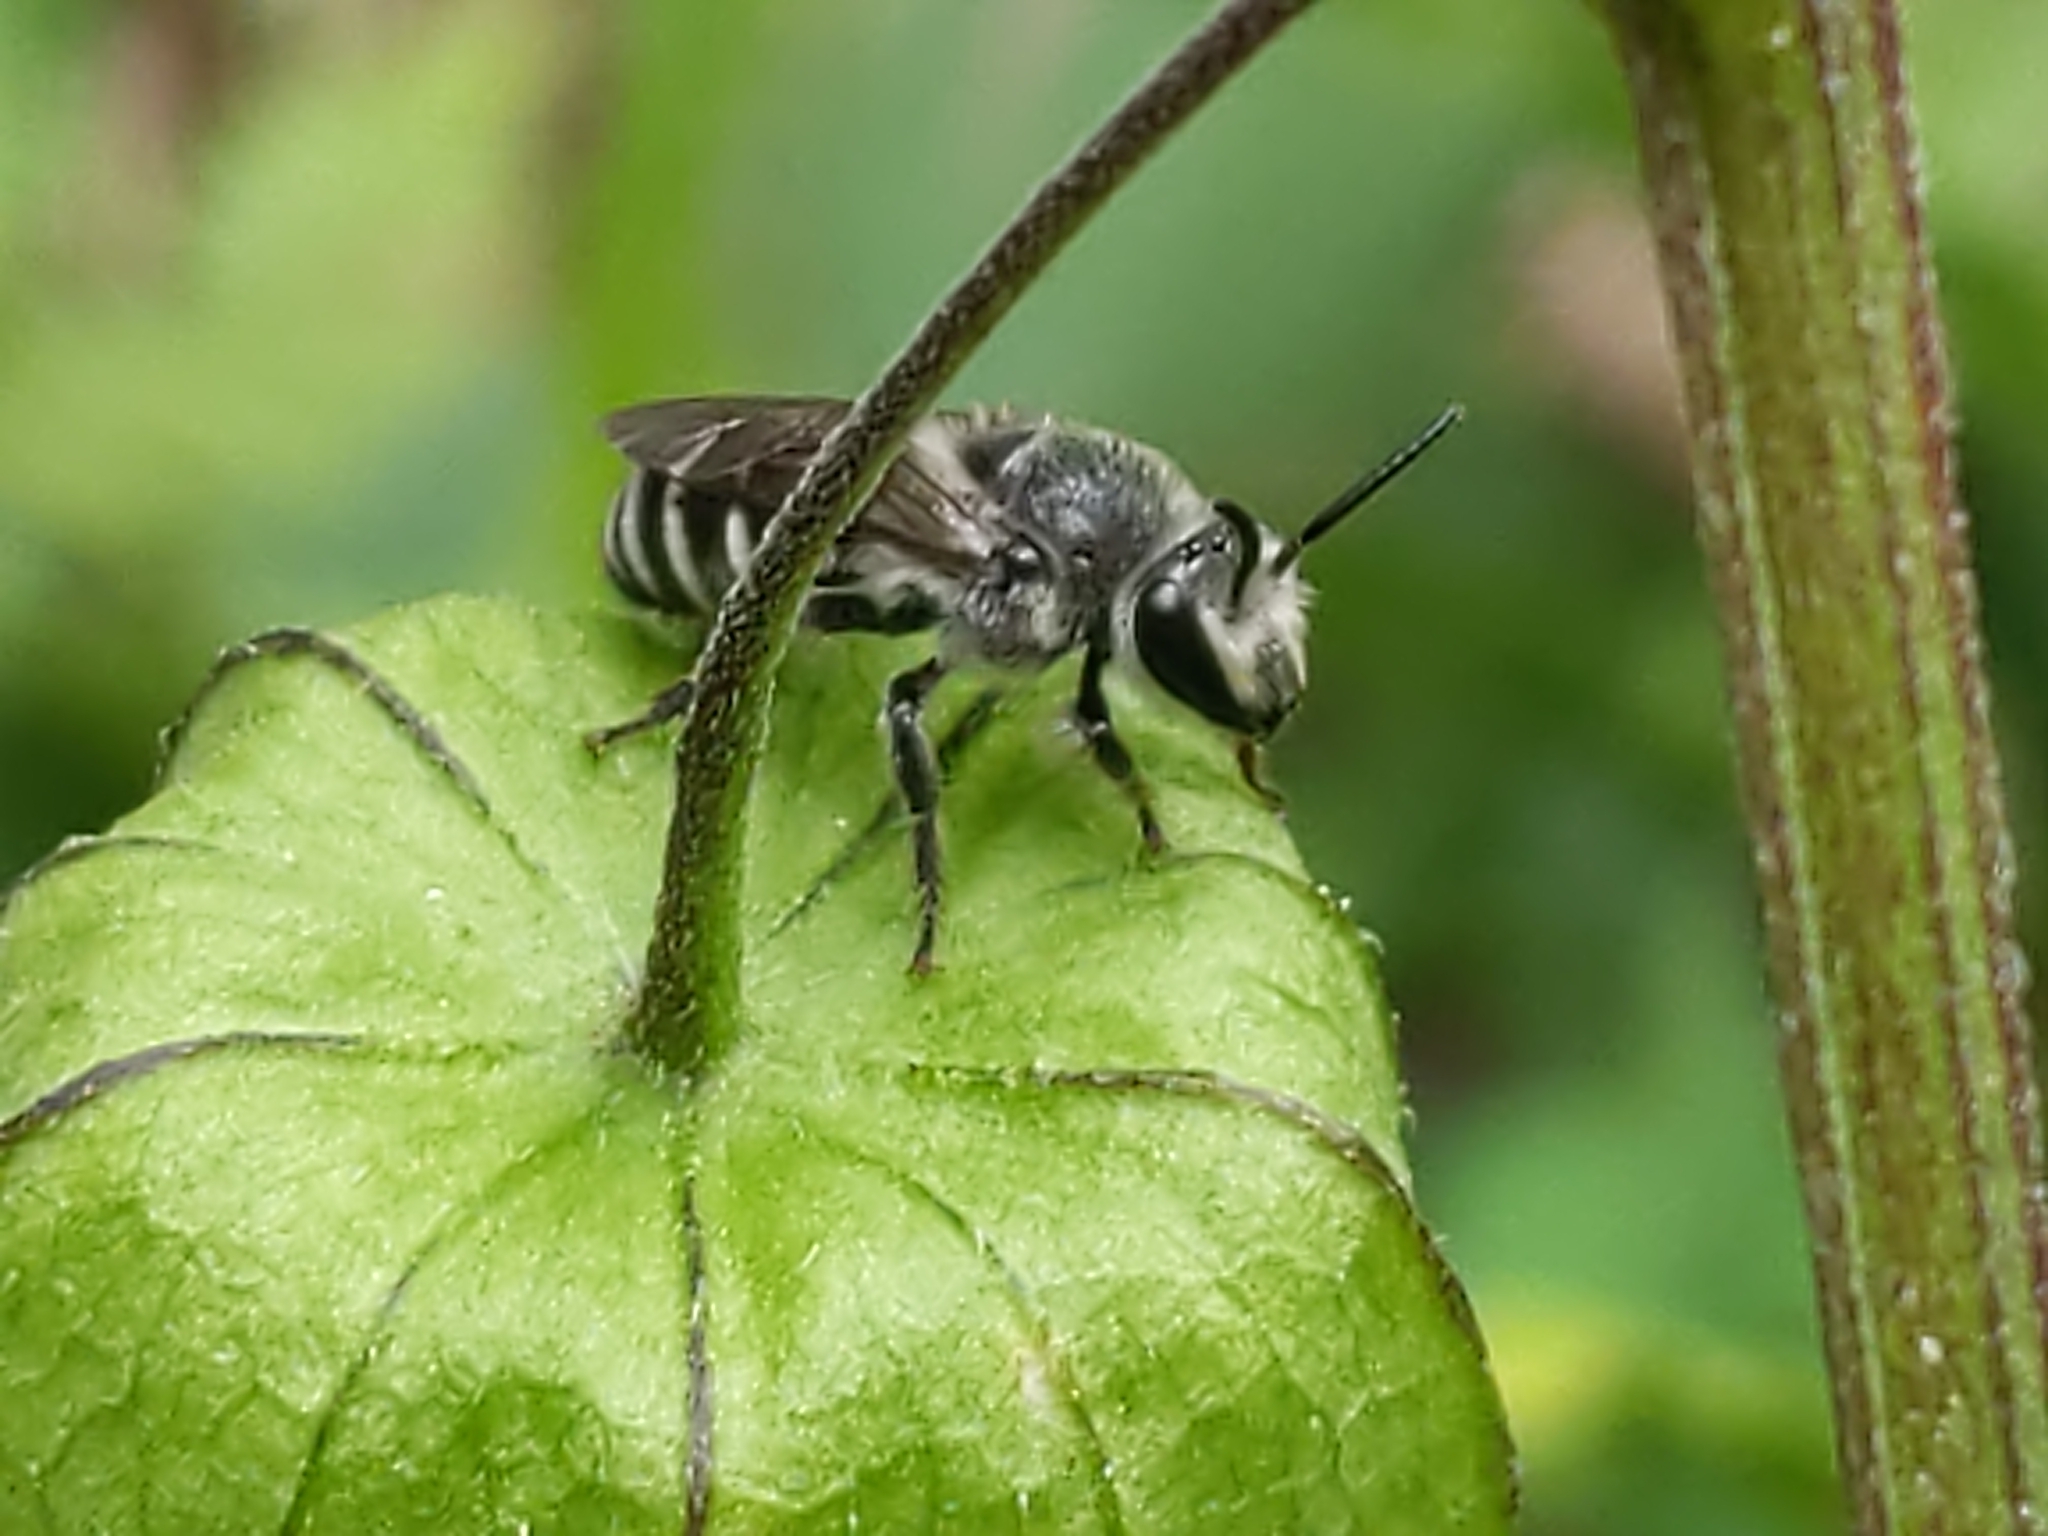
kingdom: Animalia
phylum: Arthropoda
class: Insecta
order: Hymenoptera
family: Colletidae
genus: Colletes
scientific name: Colletes latitarsis
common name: Broad-footed cellophane bee
